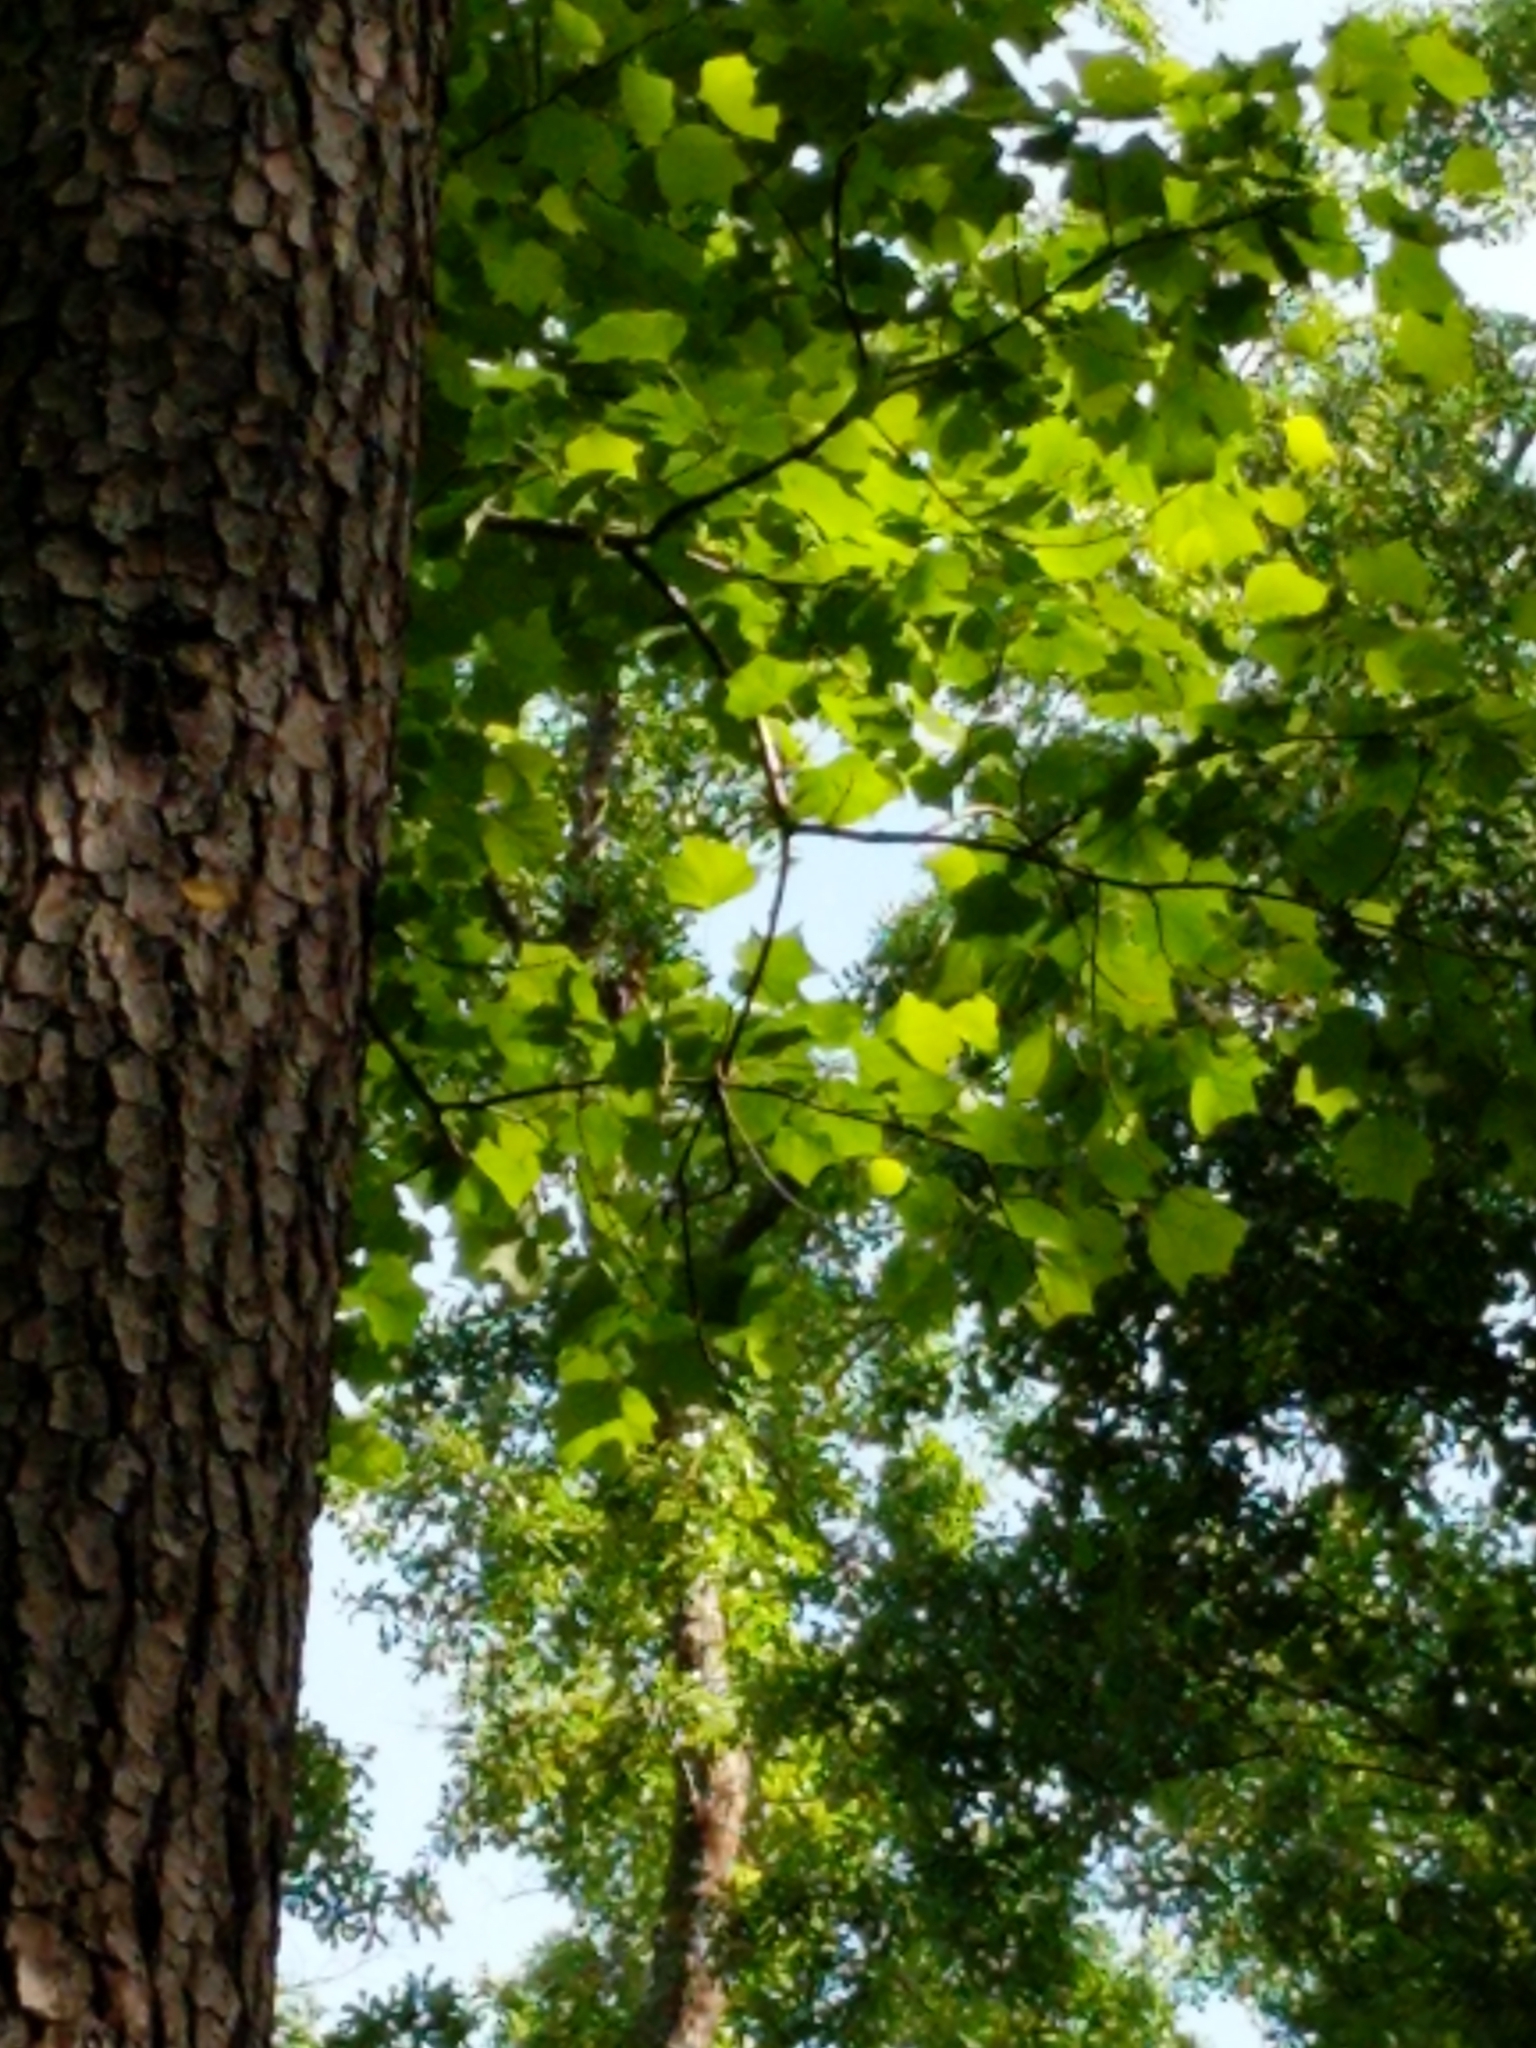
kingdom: Plantae
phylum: Tracheophyta
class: Magnoliopsida
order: Magnoliales
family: Magnoliaceae
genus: Liriodendron
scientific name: Liriodendron tulipifera
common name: Tulip tree
